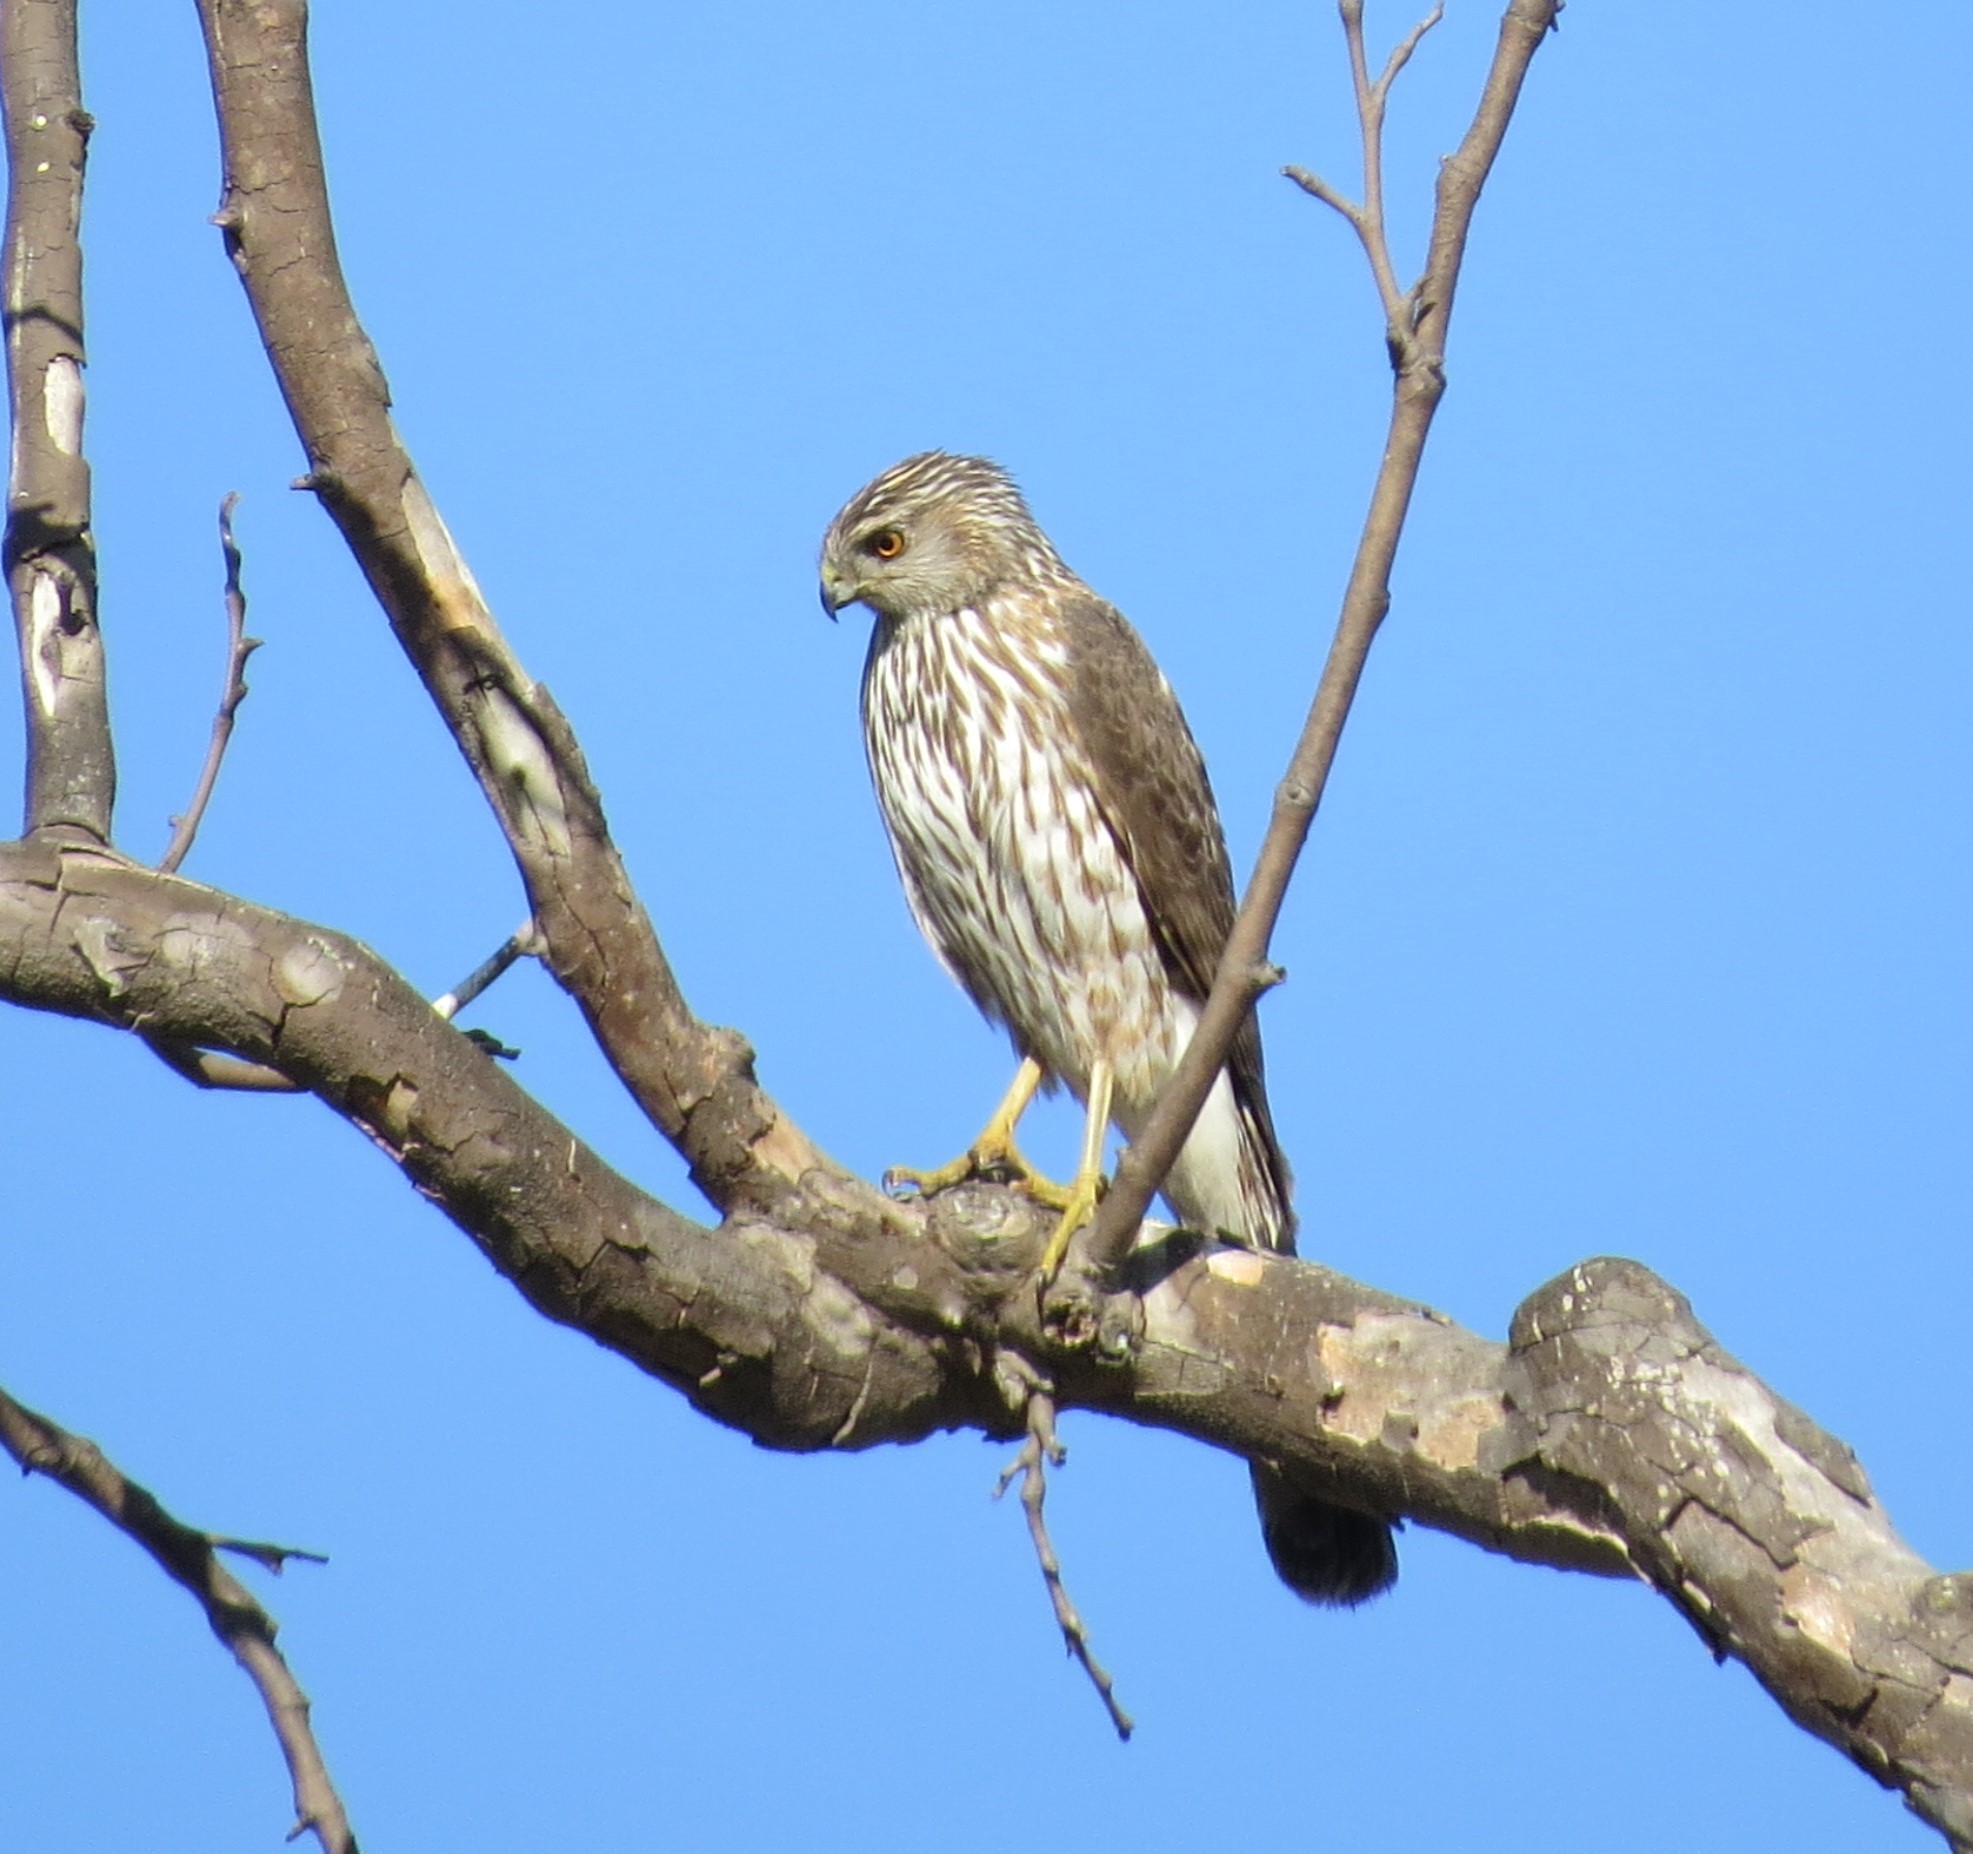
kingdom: Animalia
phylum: Chordata
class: Aves
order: Accipitriformes
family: Accipitridae
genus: Accipiter
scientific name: Accipiter cooperii
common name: Cooper's hawk
